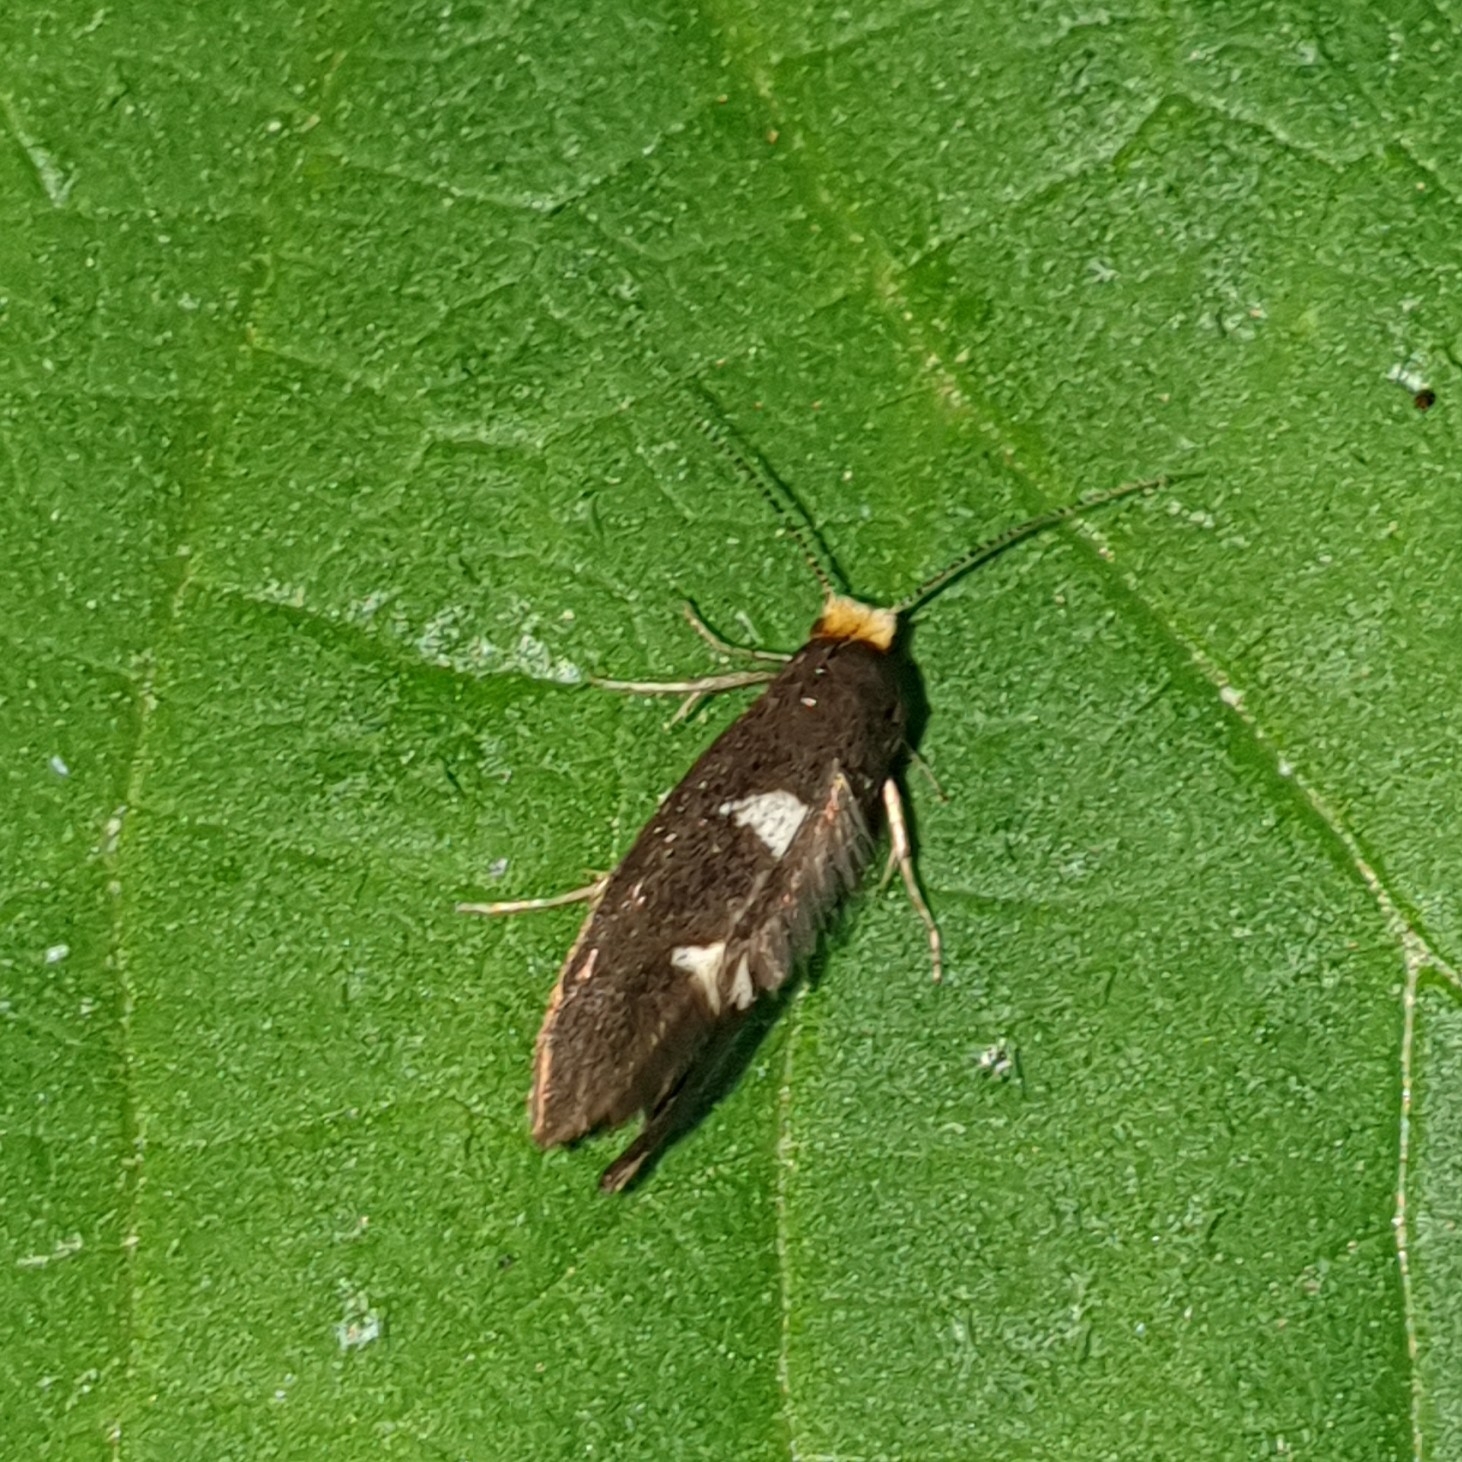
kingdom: Animalia
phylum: Arthropoda
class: Insecta
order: Lepidoptera
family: Incurvariidae
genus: Incurvaria
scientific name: Incurvaria masculella
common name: Feathered leaf-cutter
